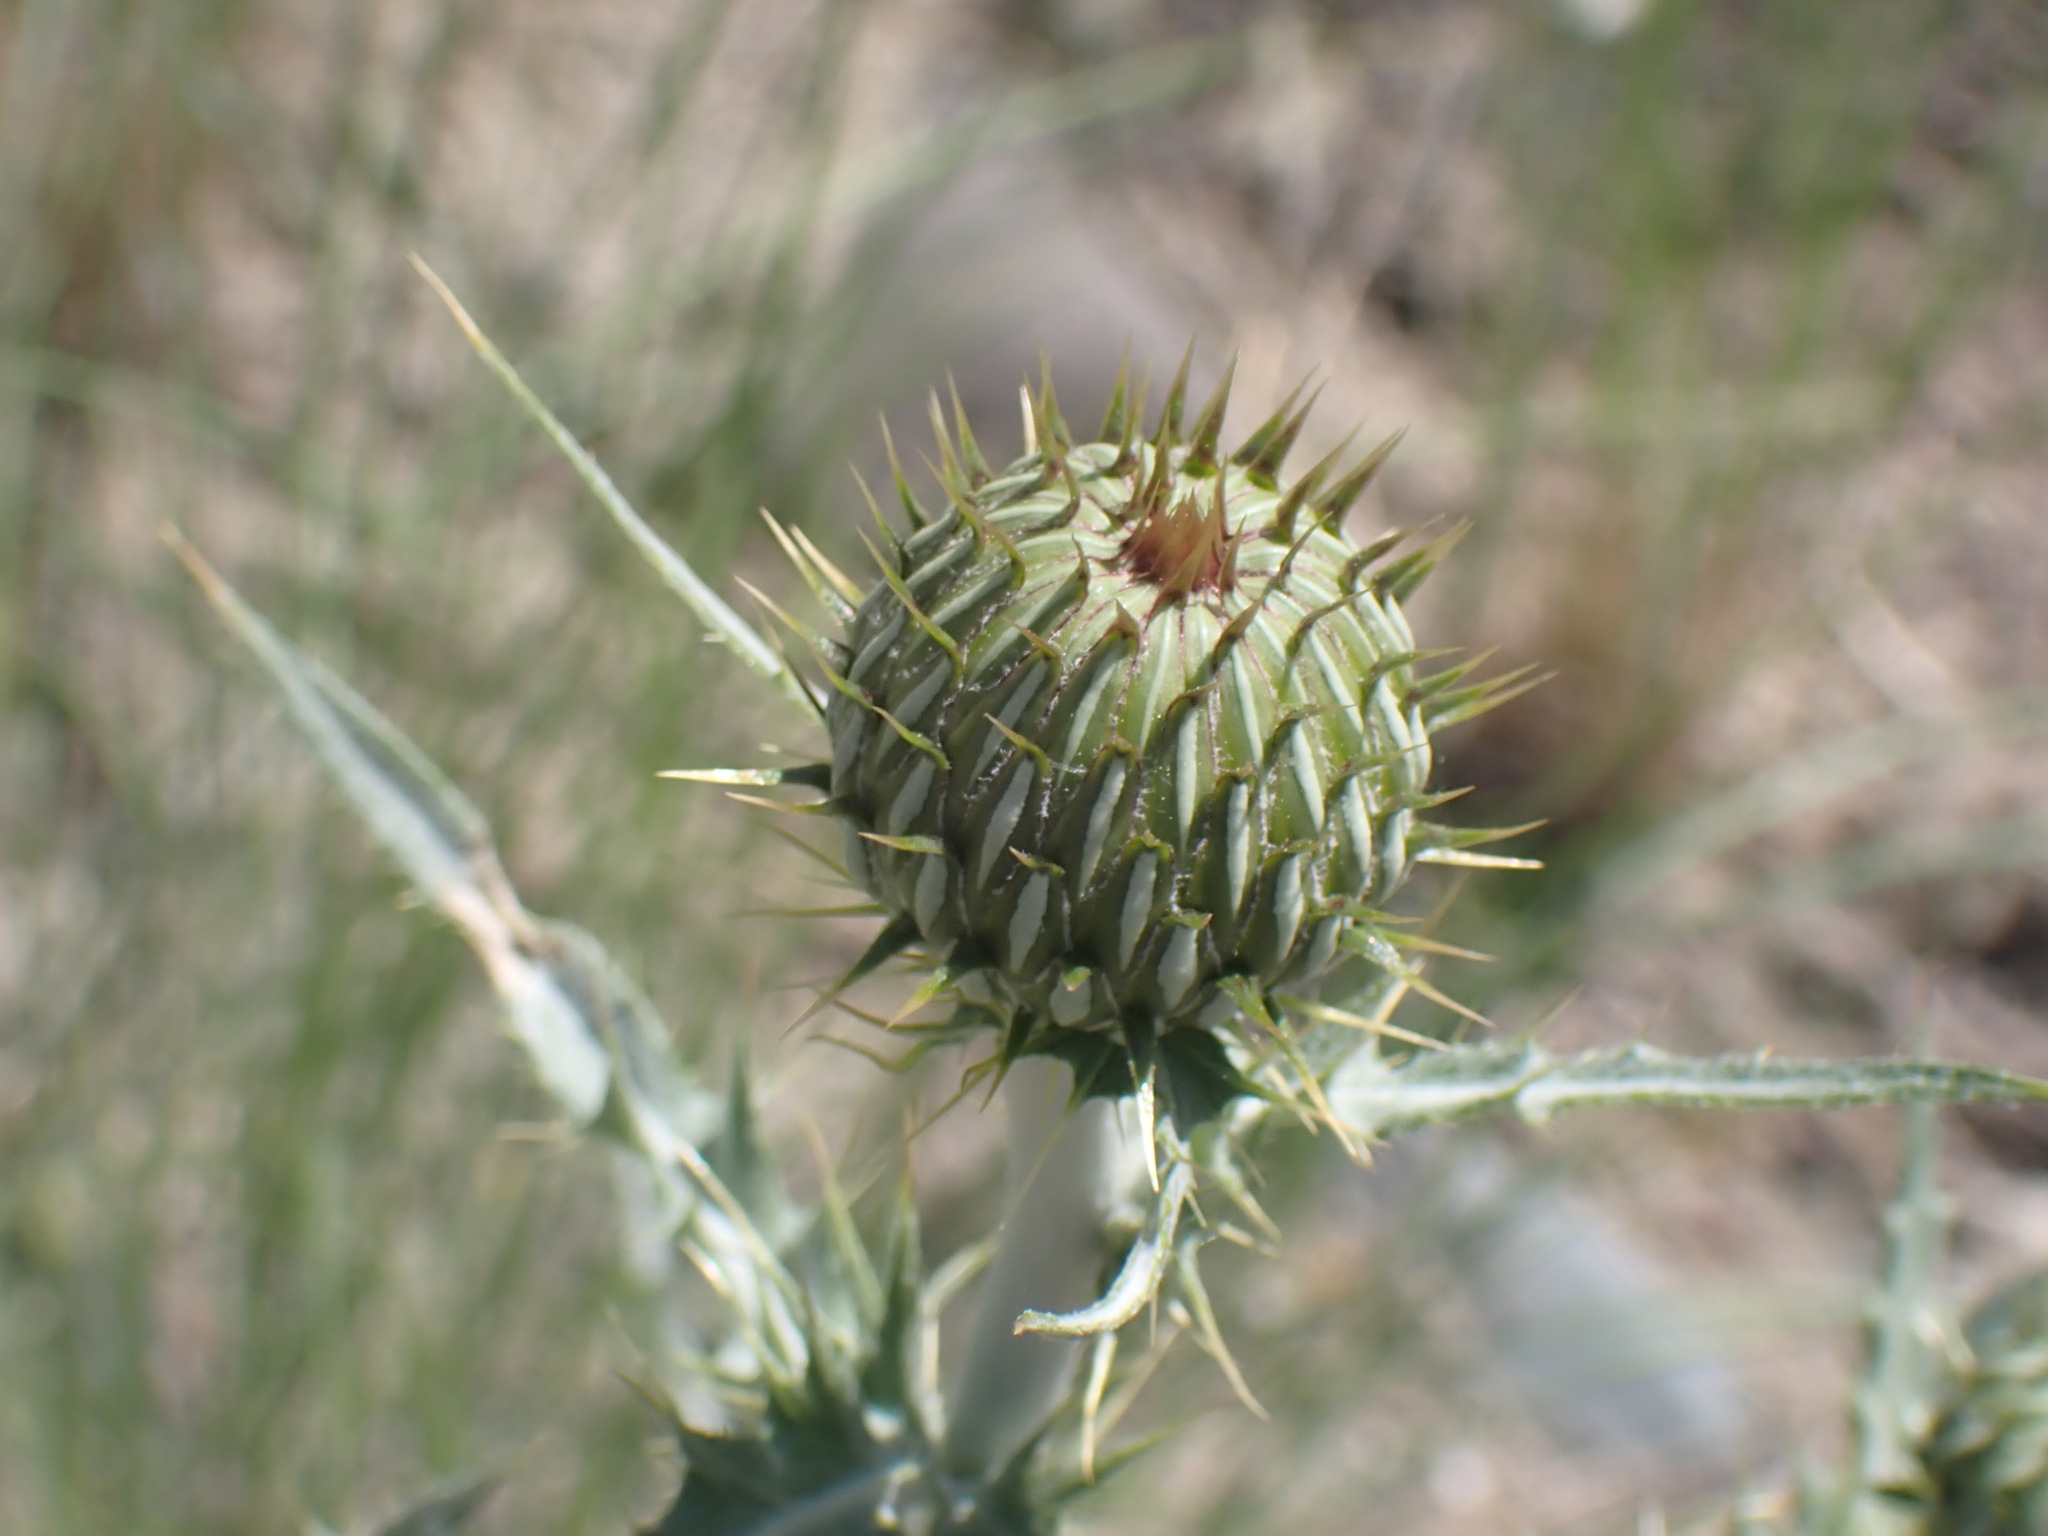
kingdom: Plantae
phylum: Tracheophyta
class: Magnoliopsida
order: Asterales
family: Asteraceae
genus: Cirsium
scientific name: Cirsium undulatum
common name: Pasture thistle
